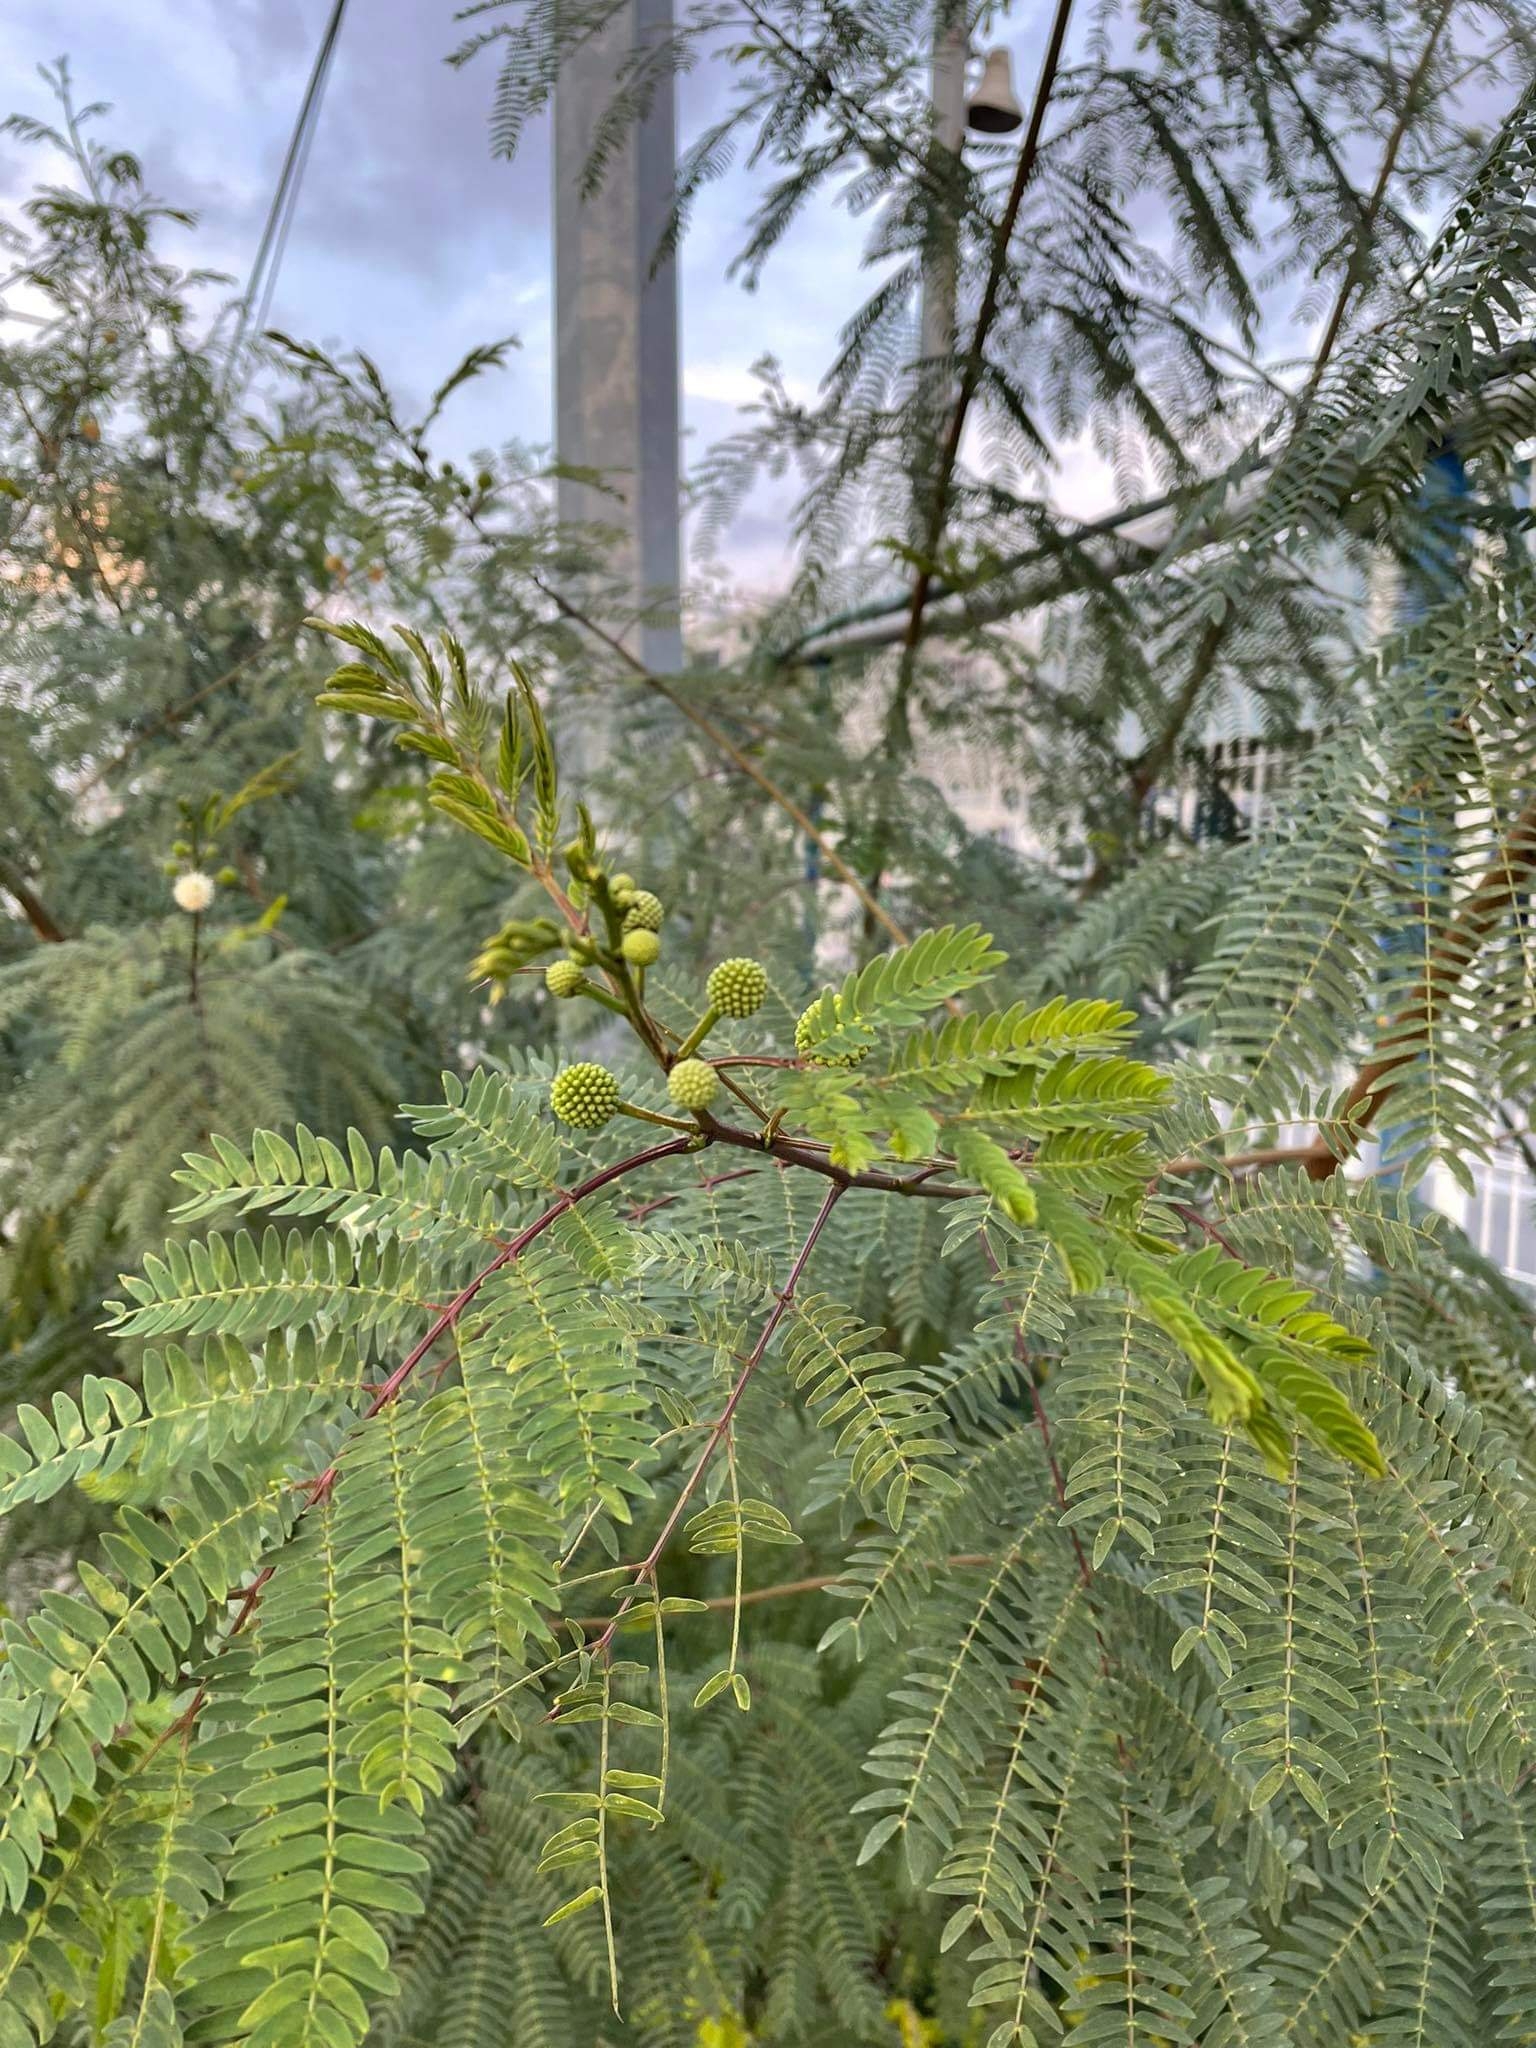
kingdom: Plantae
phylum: Tracheophyta
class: Magnoliopsida
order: Fabales
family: Fabaceae
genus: Leucaena
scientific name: Leucaena leucocephala
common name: White leadtree
